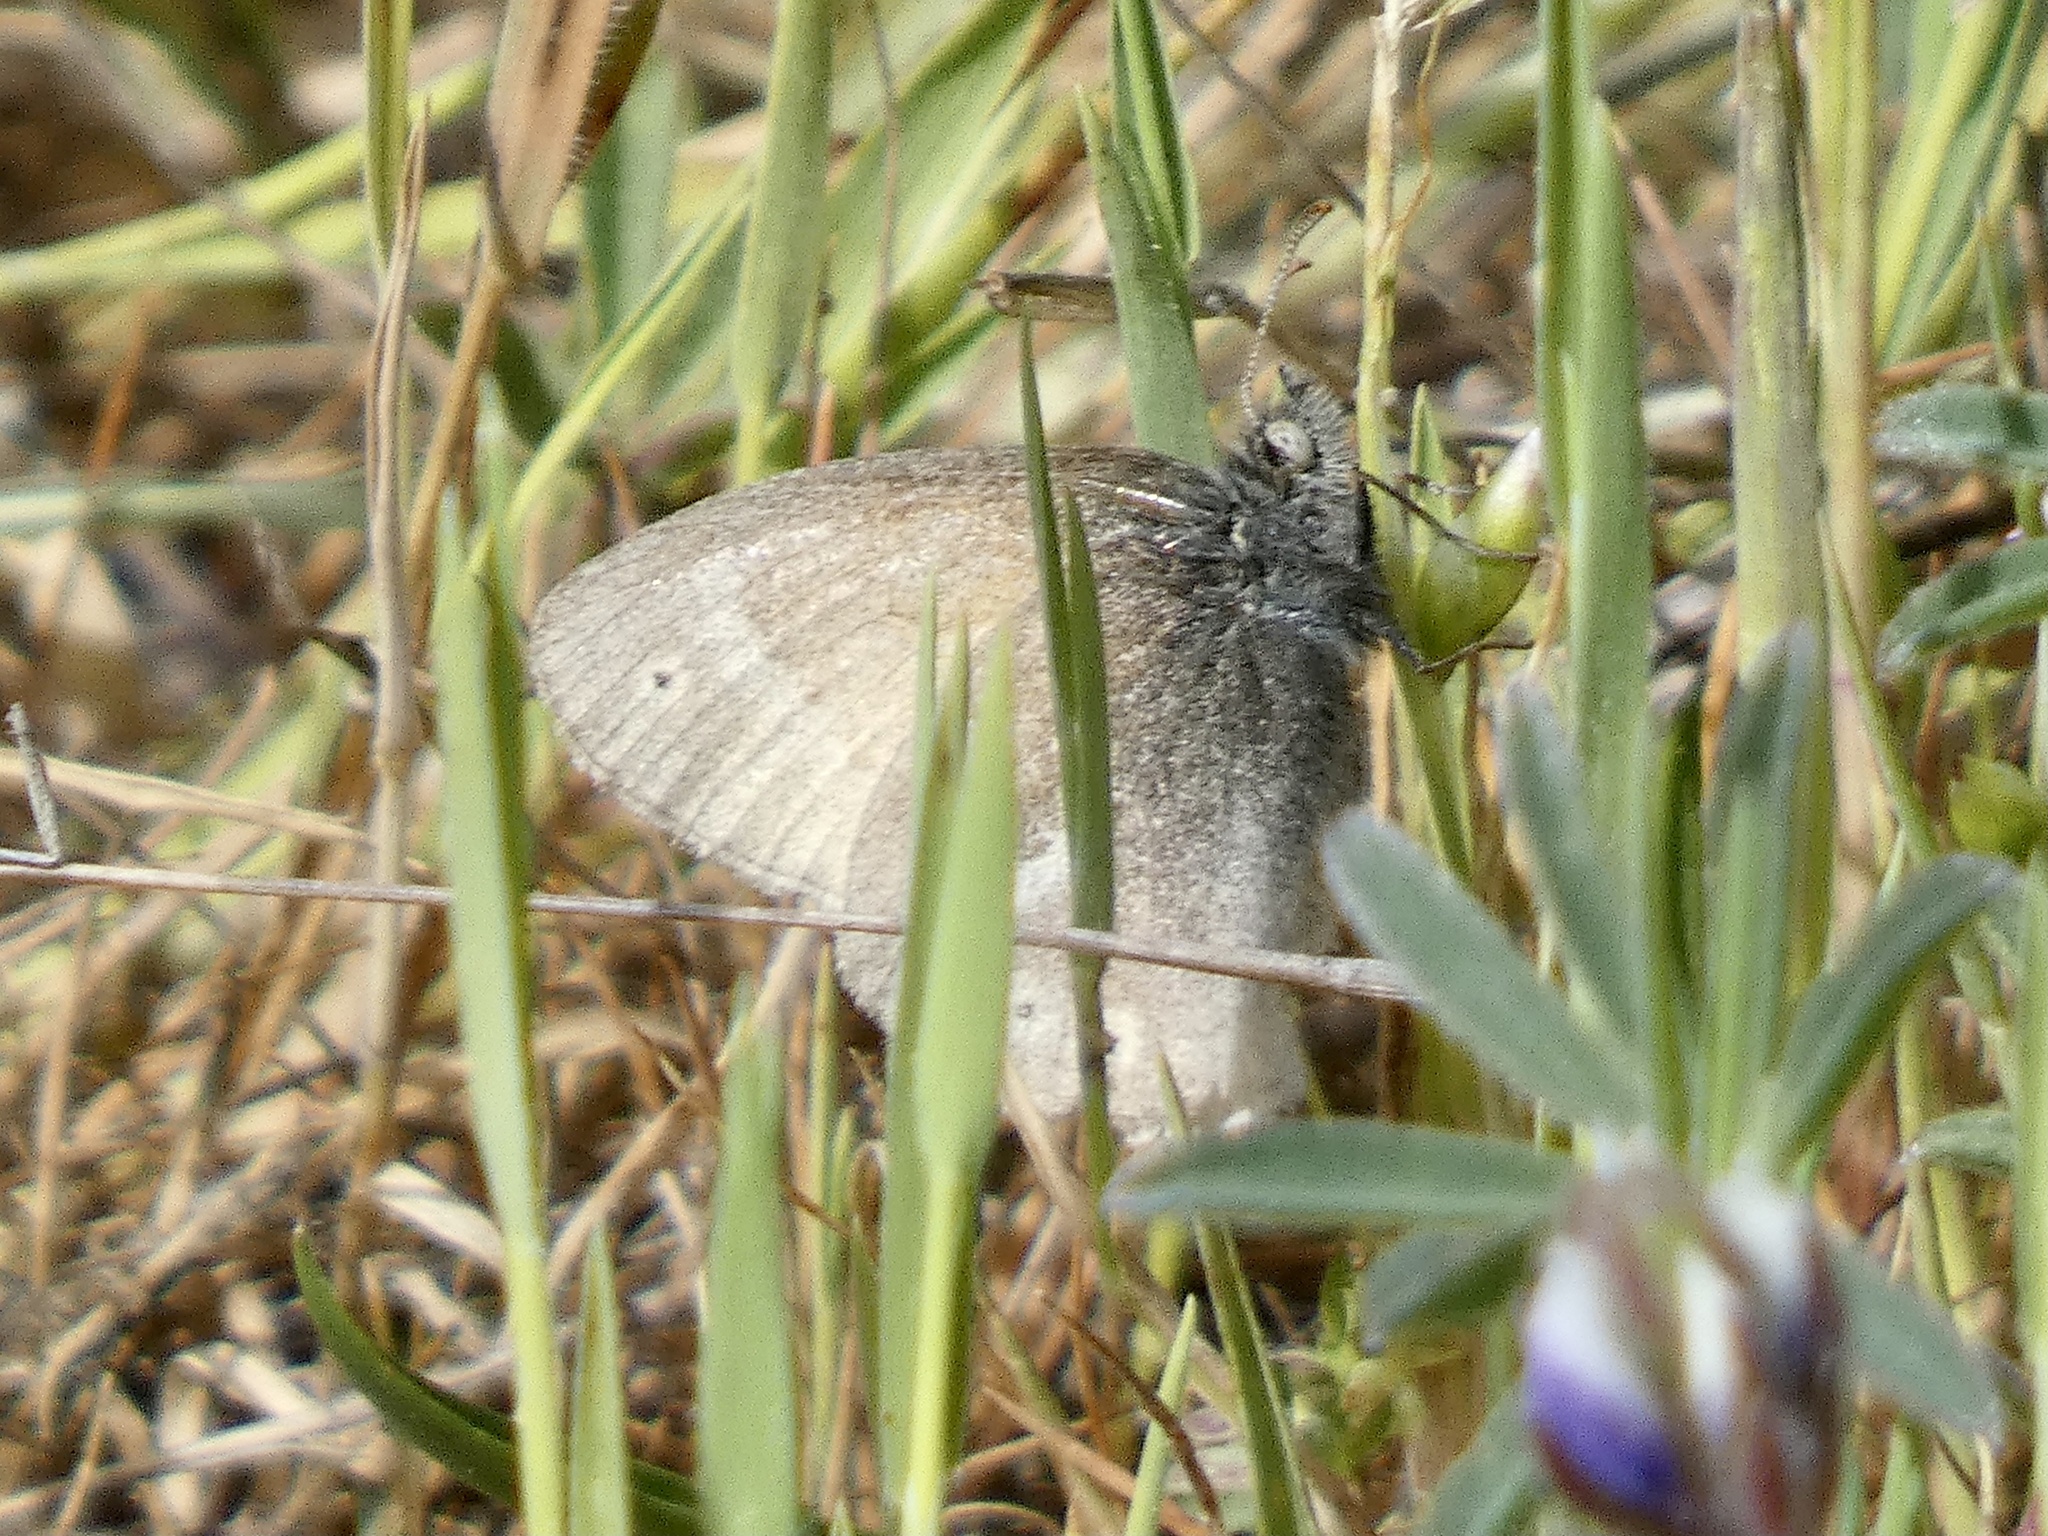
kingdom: Animalia
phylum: Arthropoda
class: Insecta
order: Lepidoptera
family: Nymphalidae
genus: Coenonympha
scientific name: Coenonympha california
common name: Common ringlet
